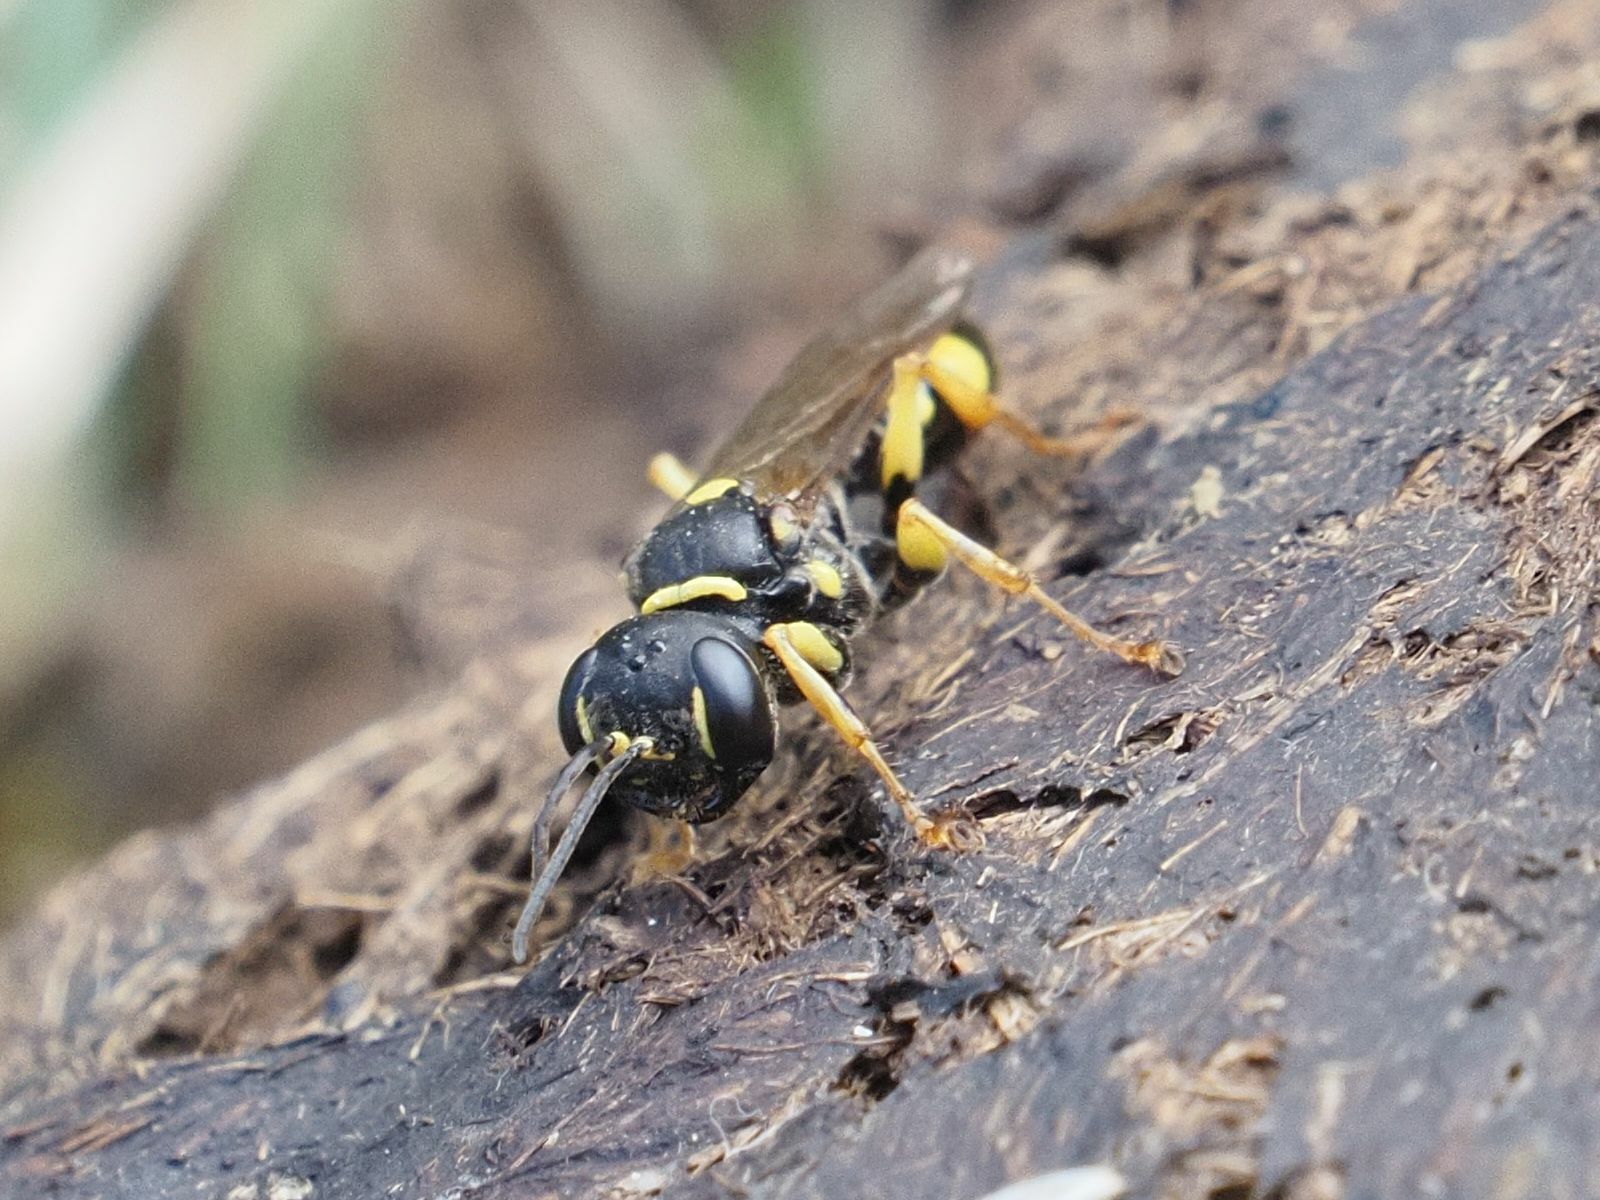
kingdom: Animalia
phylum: Arthropoda
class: Insecta
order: Hymenoptera
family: Crabronidae
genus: Mellinus
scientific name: Mellinus arvensis
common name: Field digger wasp
